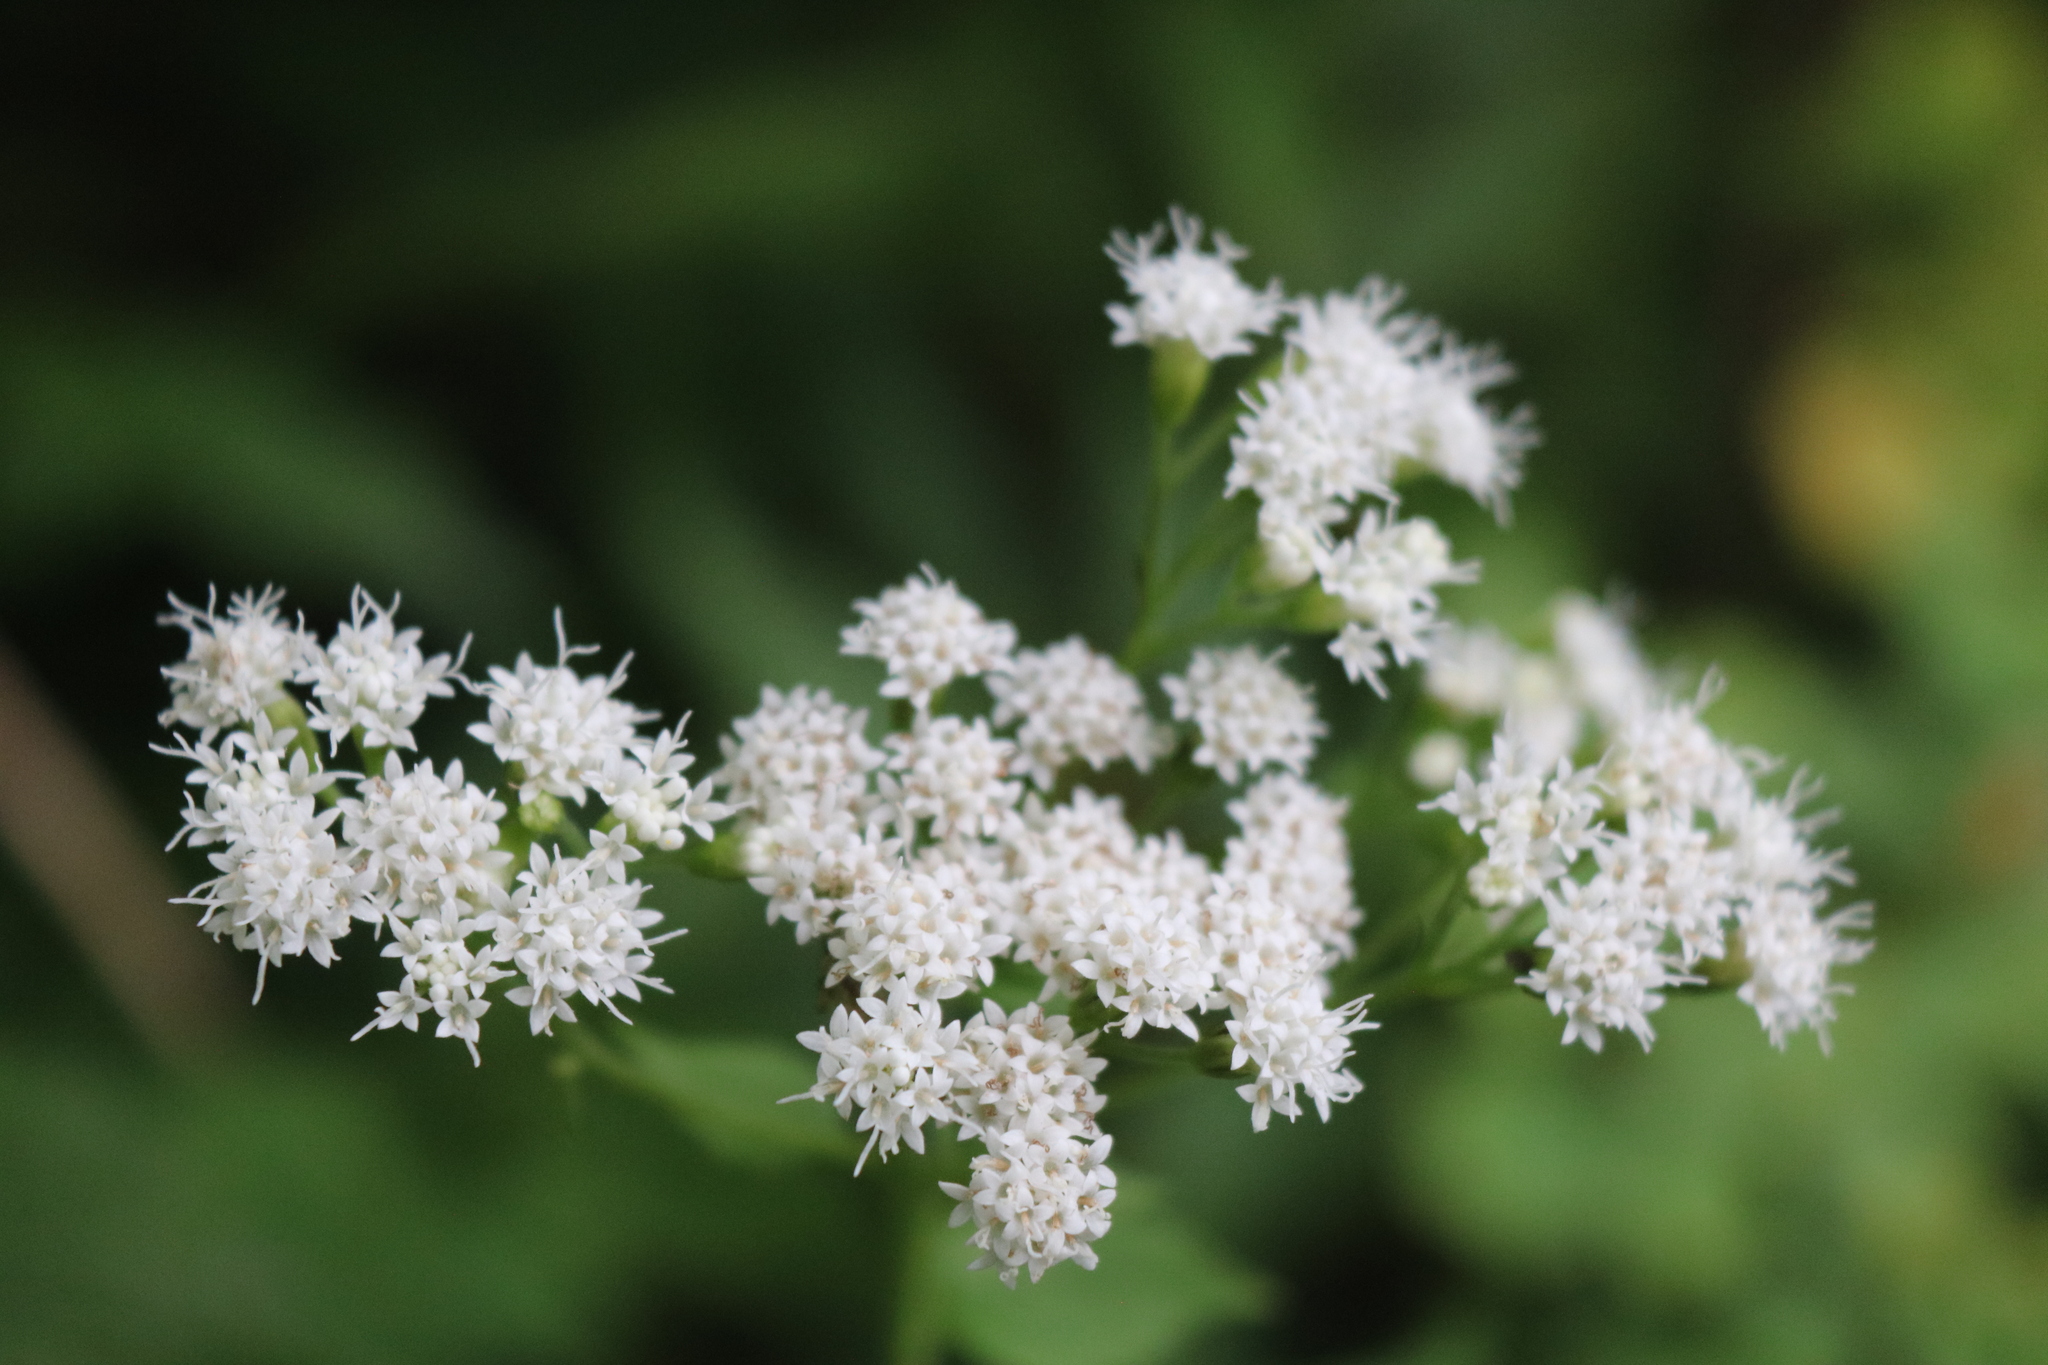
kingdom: Plantae
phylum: Tracheophyta
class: Magnoliopsida
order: Asterales
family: Asteraceae
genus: Ageratina
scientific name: Ageratina altissima
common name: White snakeroot
